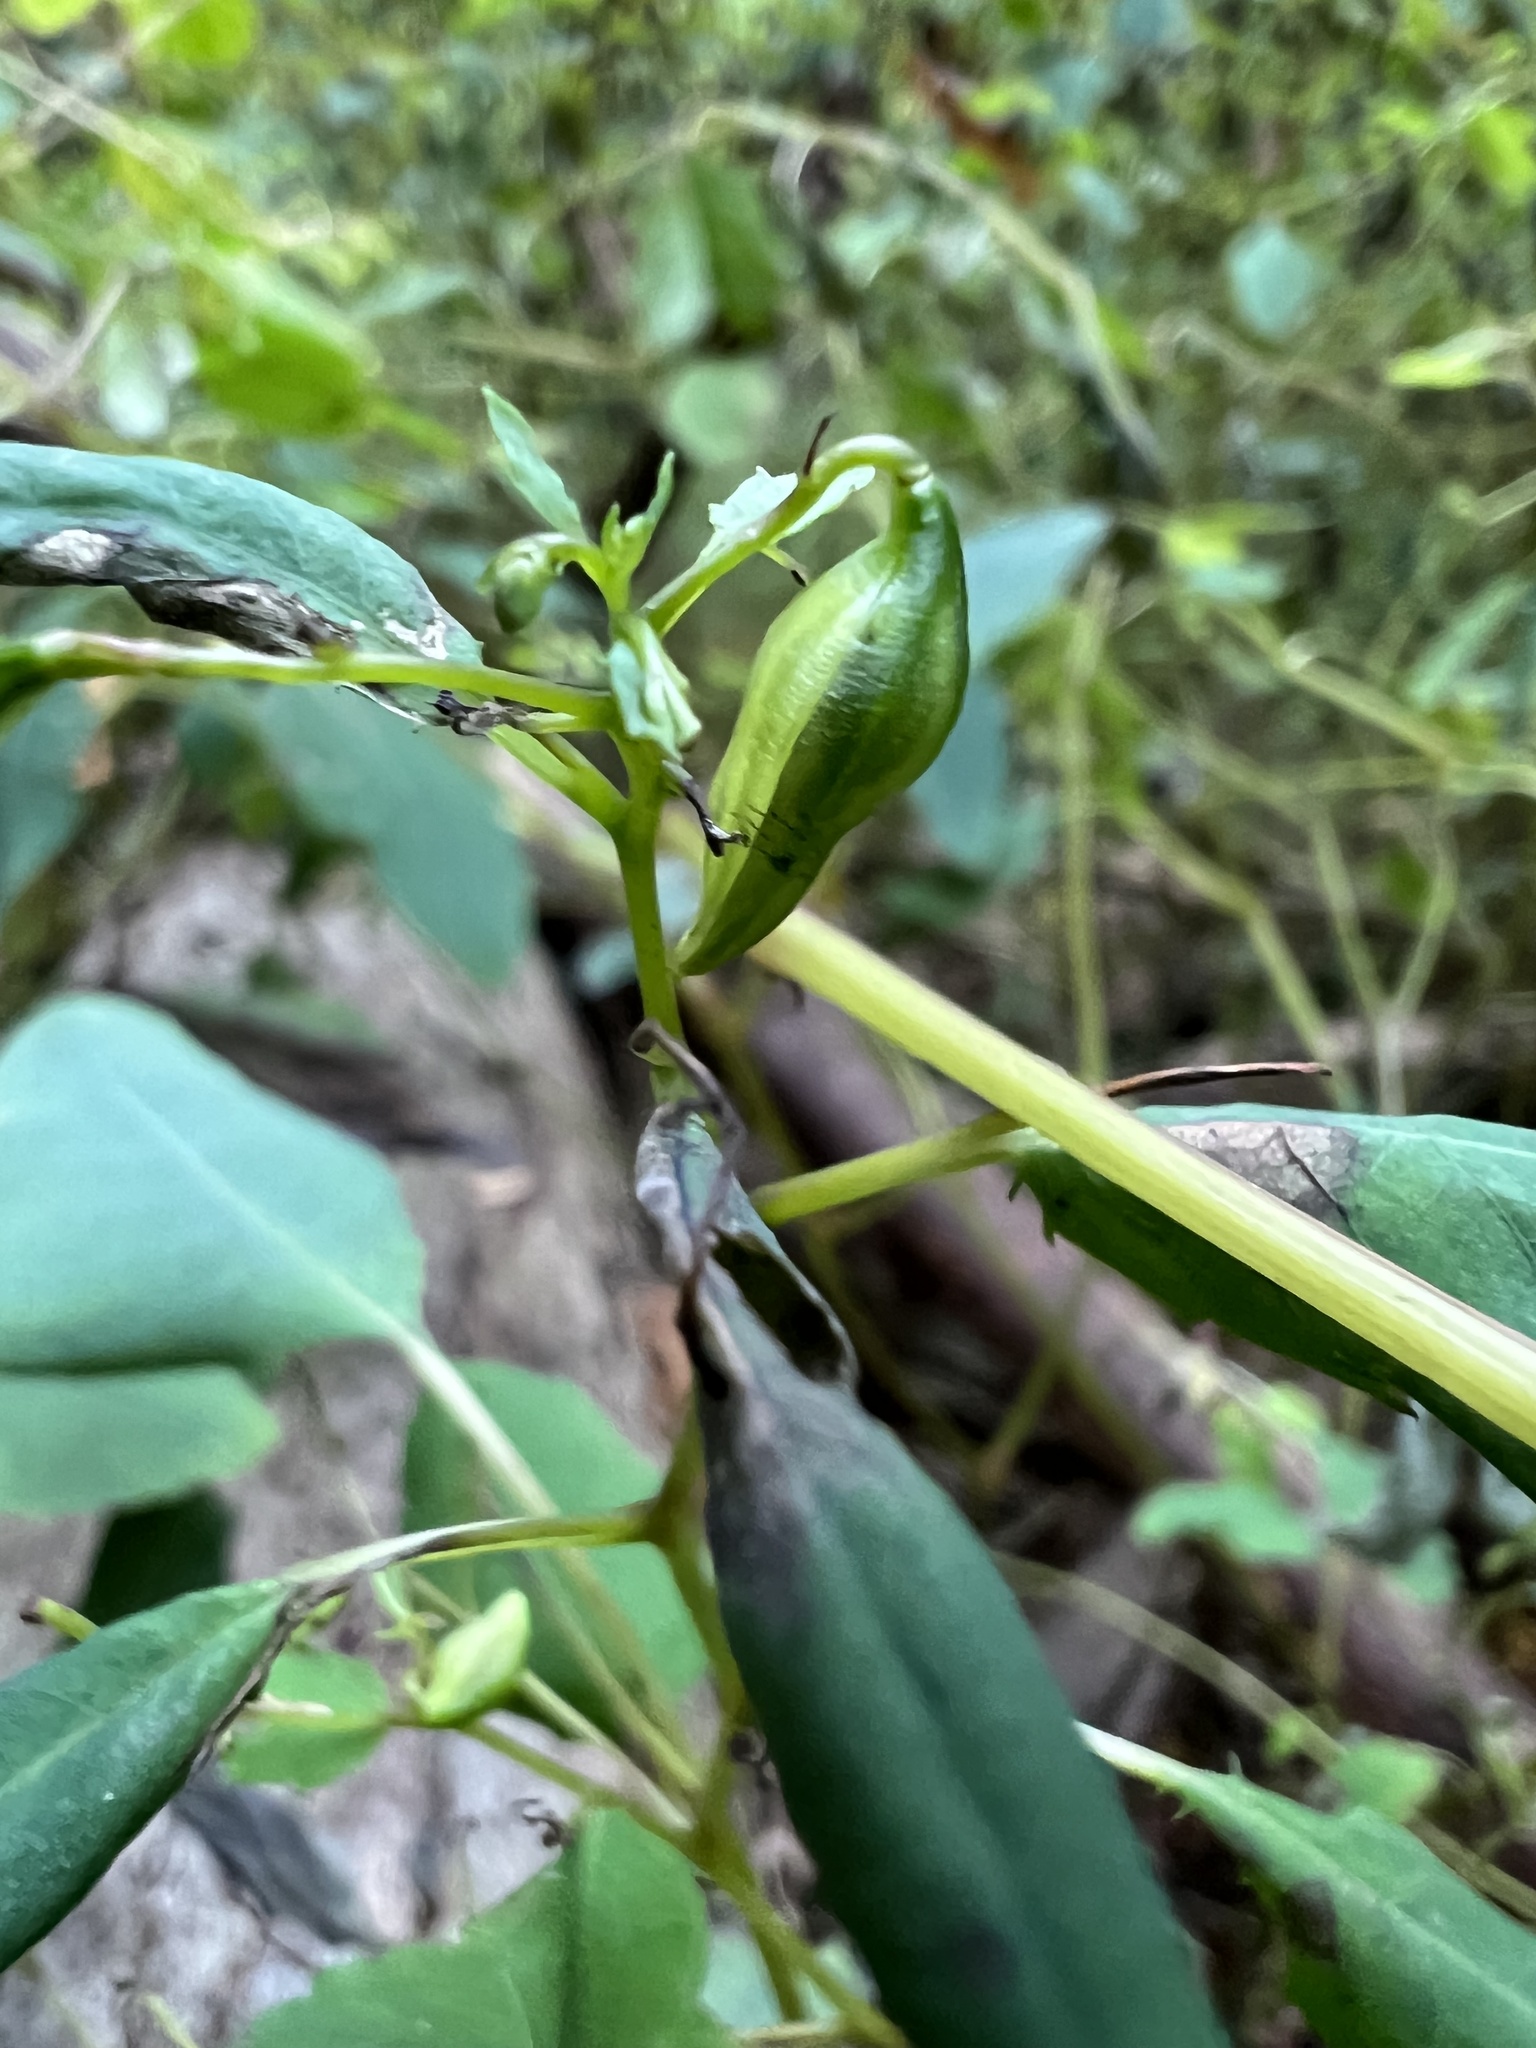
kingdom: Plantae
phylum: Tracheophyta
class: Magnoliopsida
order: Ericales
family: Balsaminaceae
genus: Impatiens
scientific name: Impatiens capensis
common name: Orange balsam
